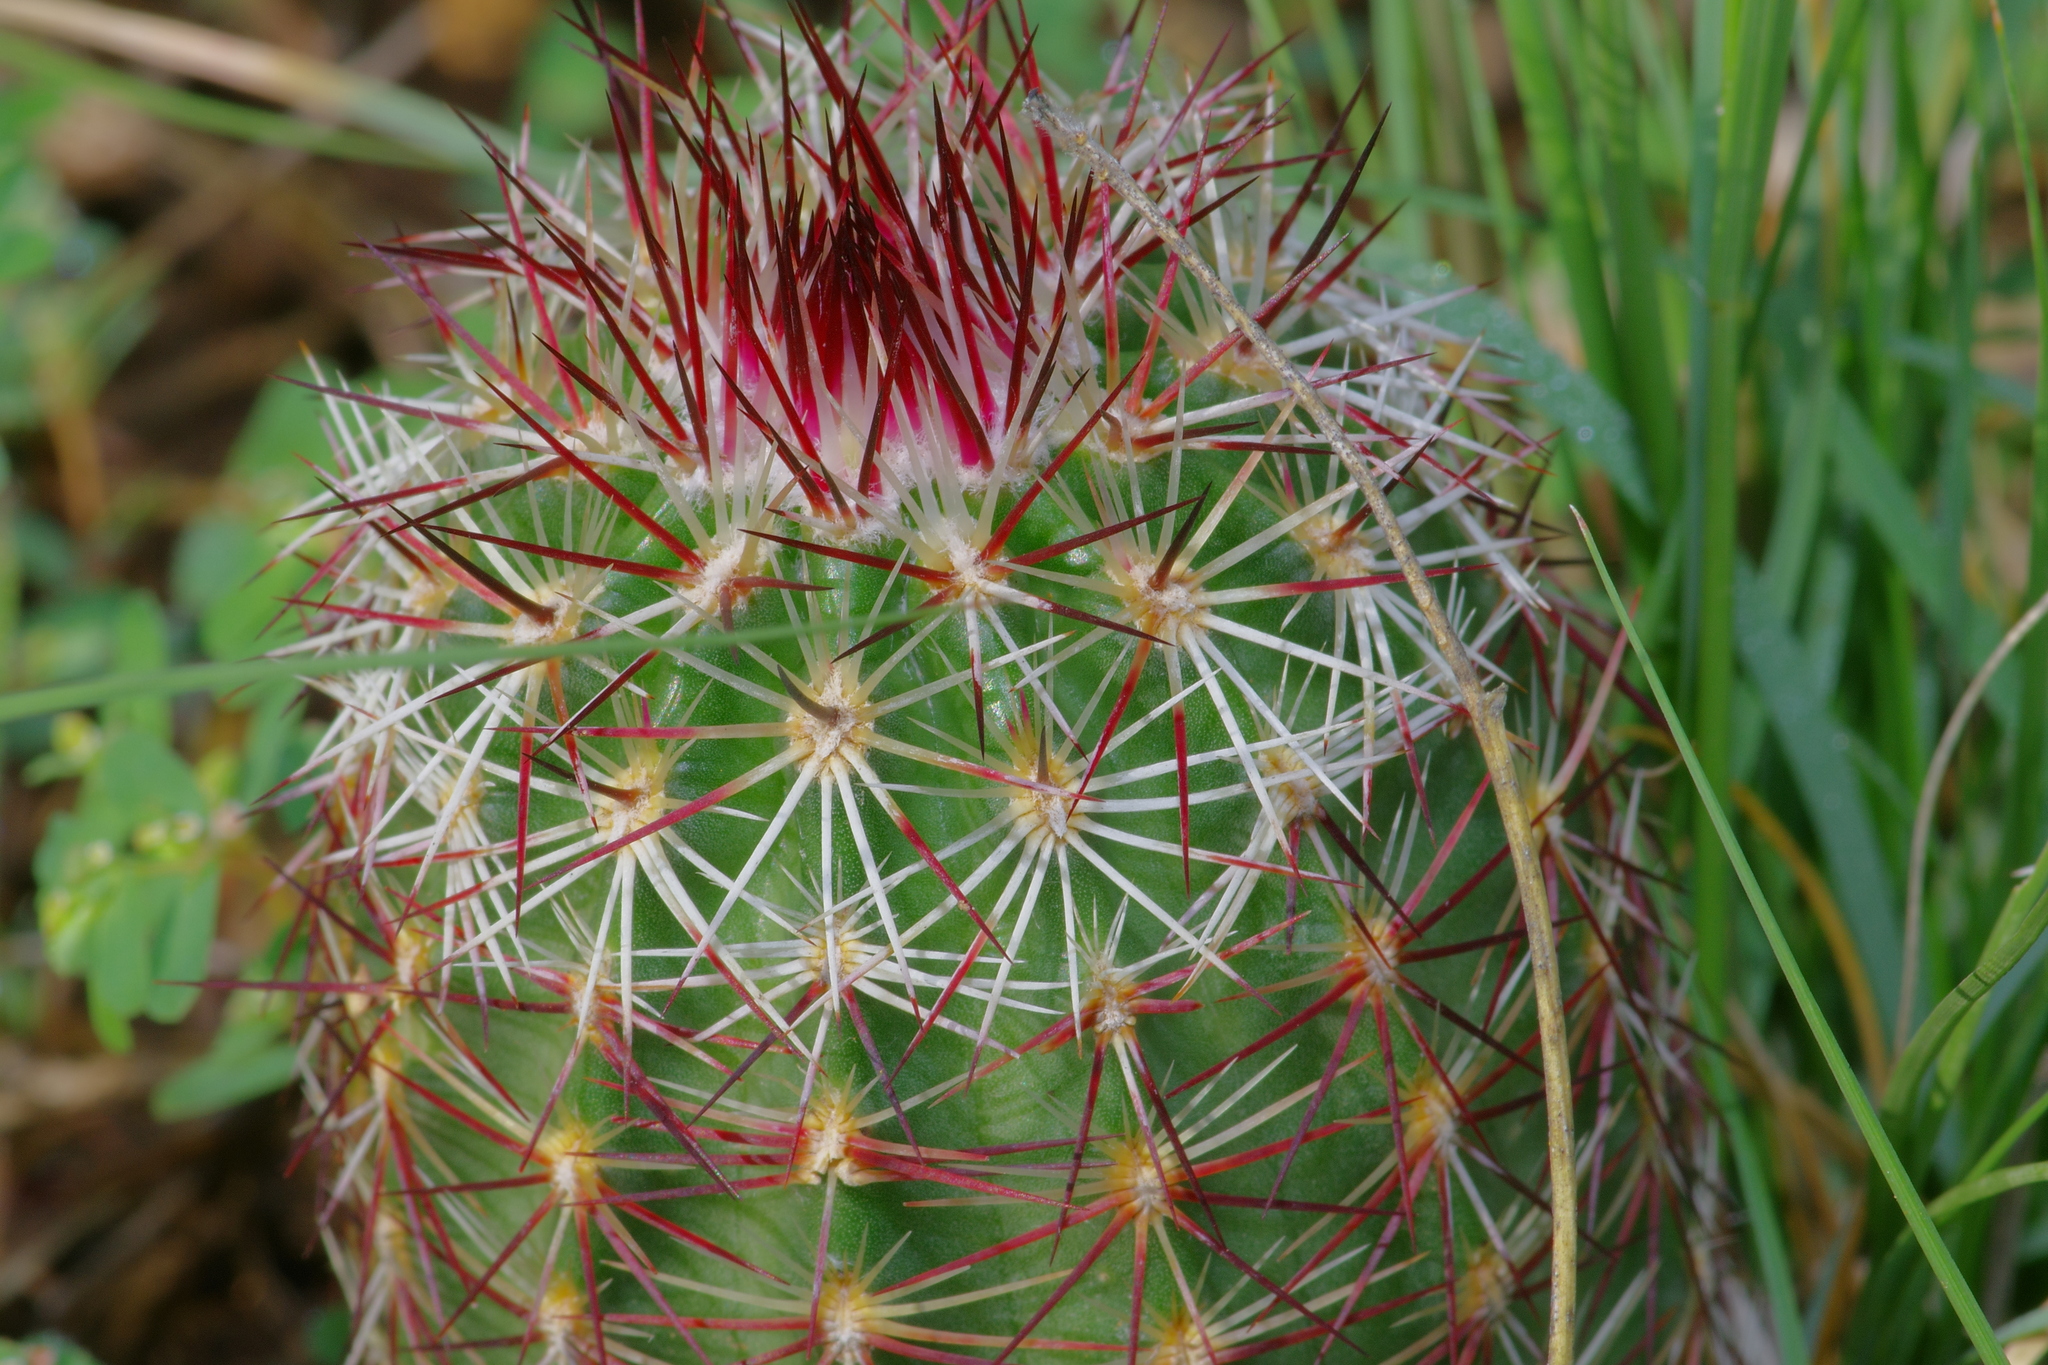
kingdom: Plantae
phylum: Tracheophyta
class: Magnoliopsida
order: Caryophyllales
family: Cactaceae
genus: Echinocereus
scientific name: Echinocereus viridiflorus
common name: Nylon hedgehog cactus
